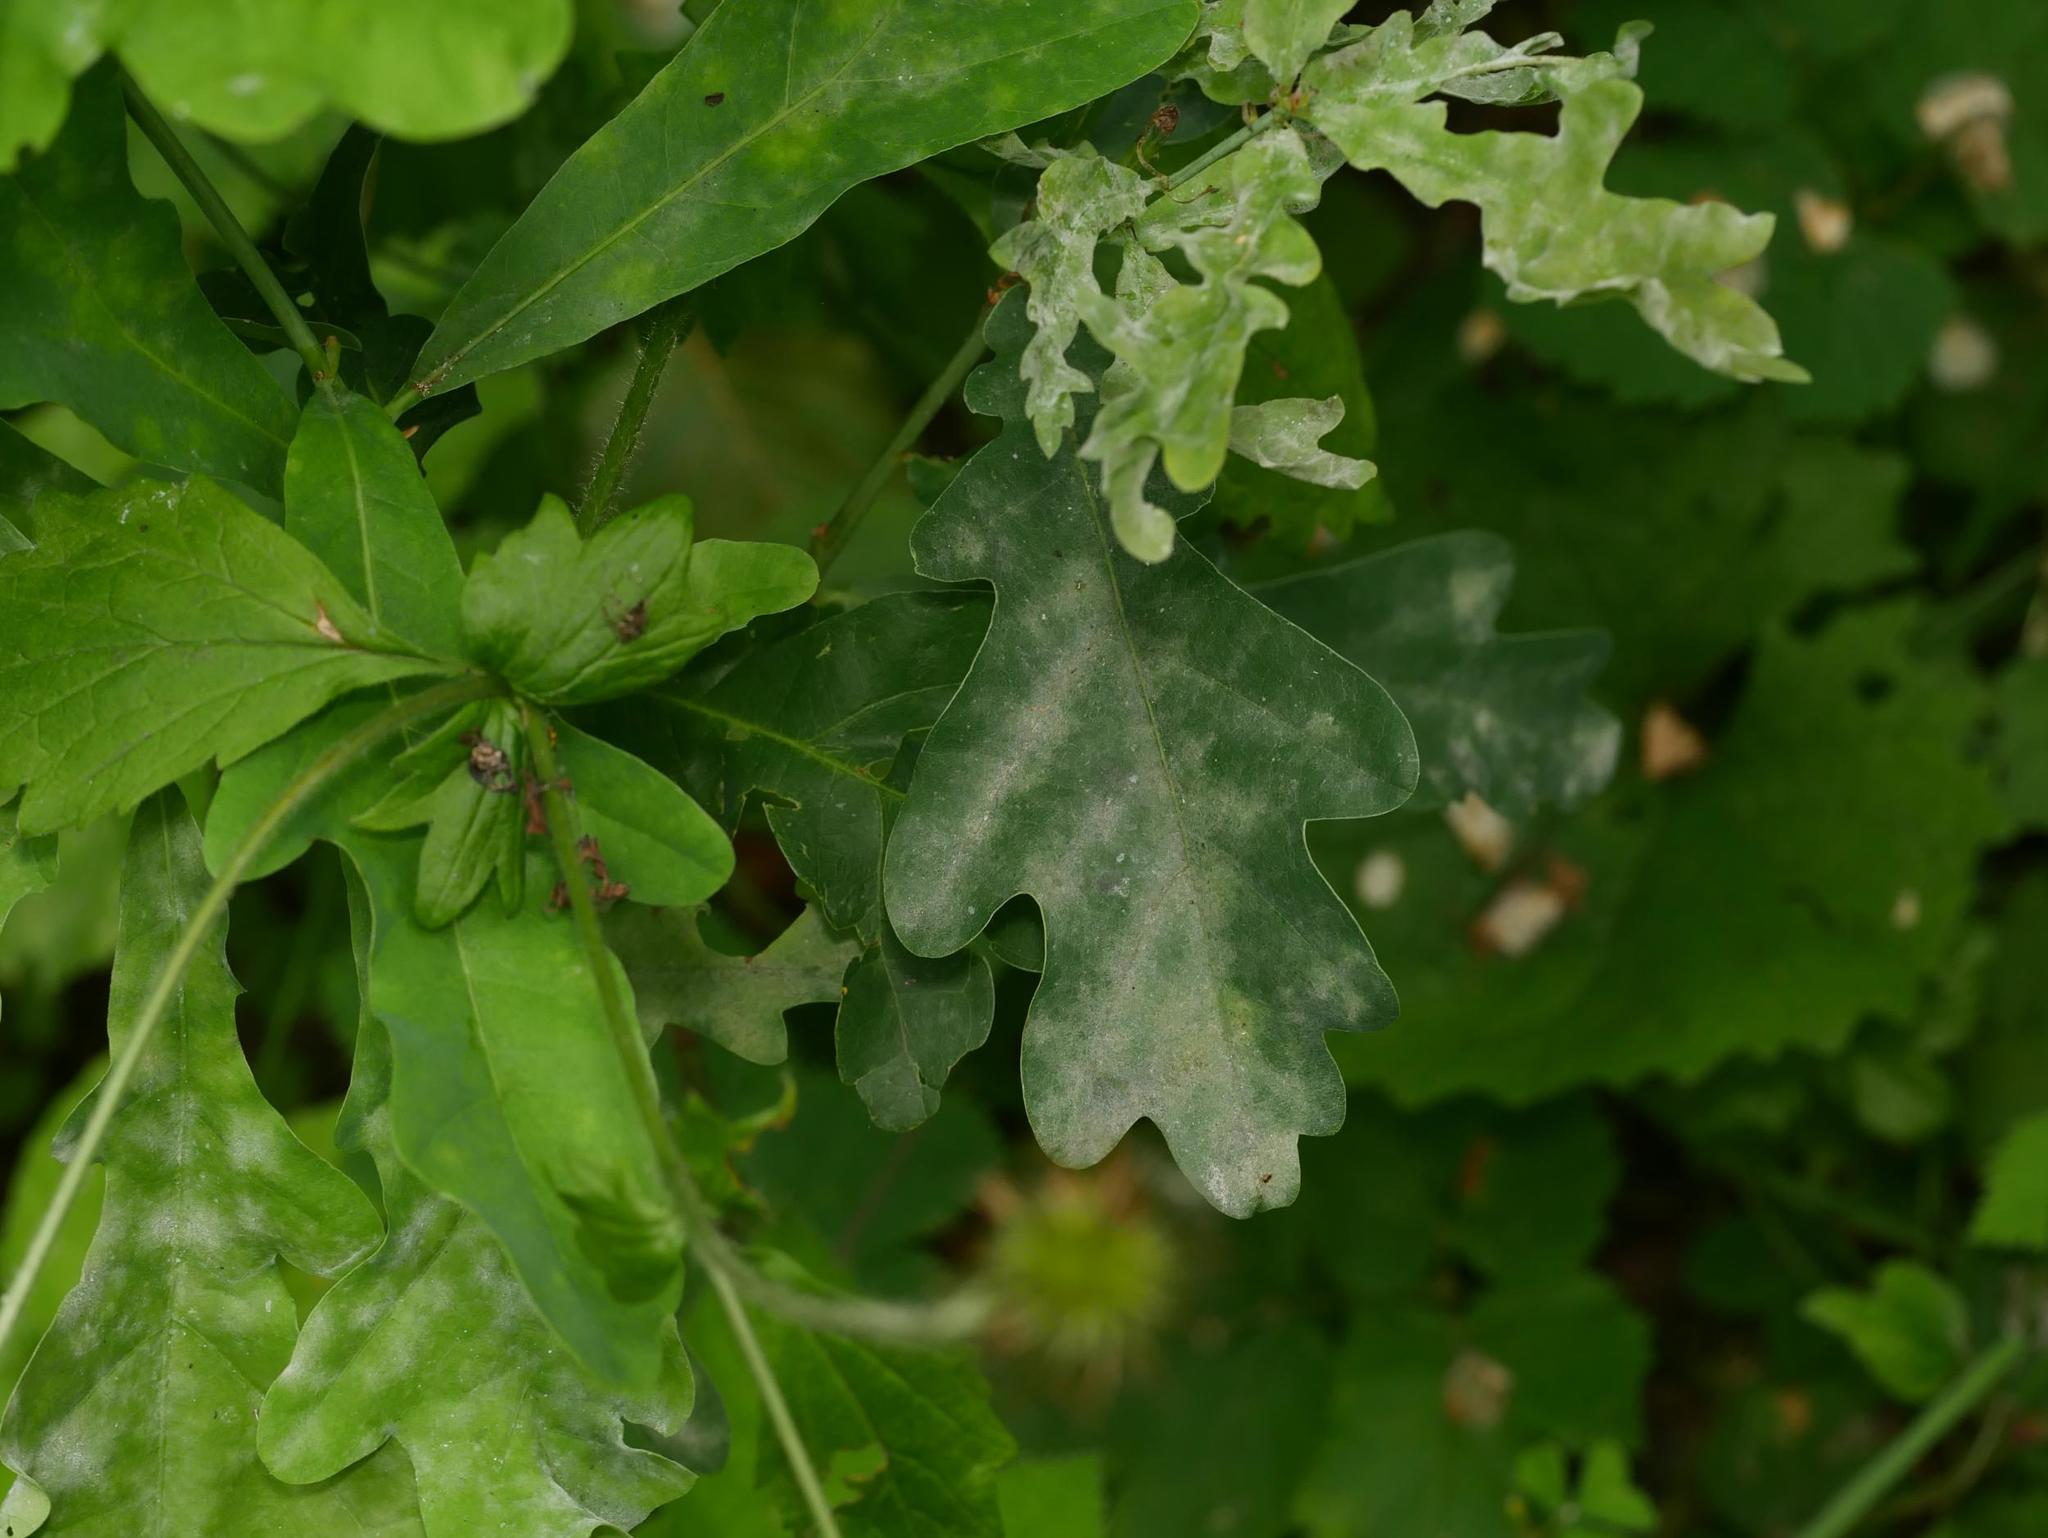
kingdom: Fungi
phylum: Ascomycota
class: Leotiomycetes
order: Helotiales
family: Erysiphaceae
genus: Erysiphe
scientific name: Erysiphe
